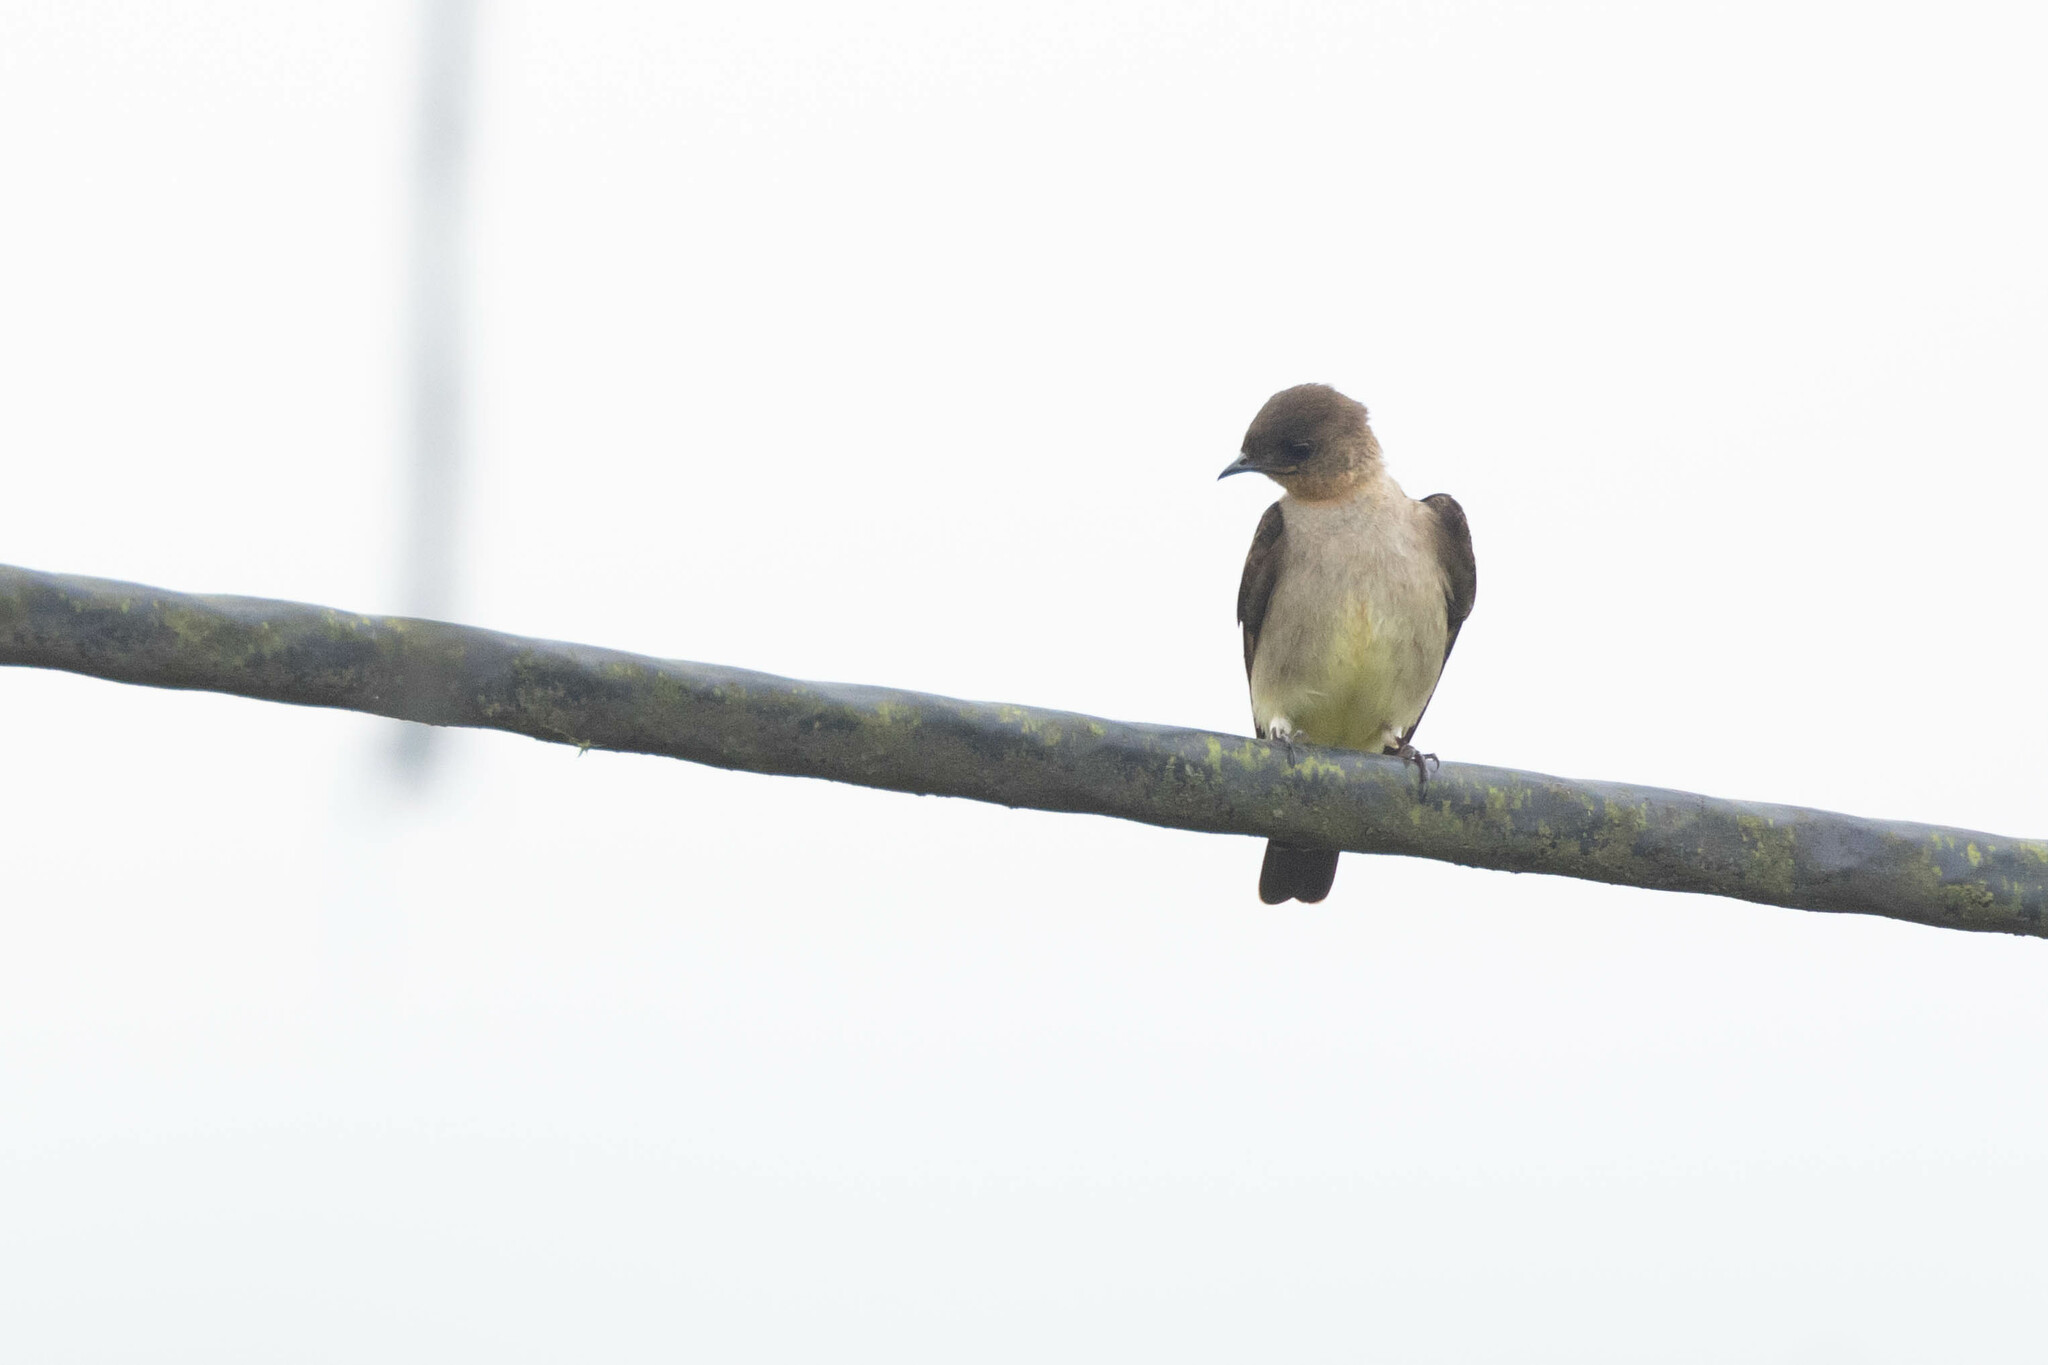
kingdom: Animalia
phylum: Chordata
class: Aves
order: Passeriformes
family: Hirundinidae
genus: Stelgidopteryx
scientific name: Stelgidopteryx ruficollis
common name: Southern rough-winged swallow
